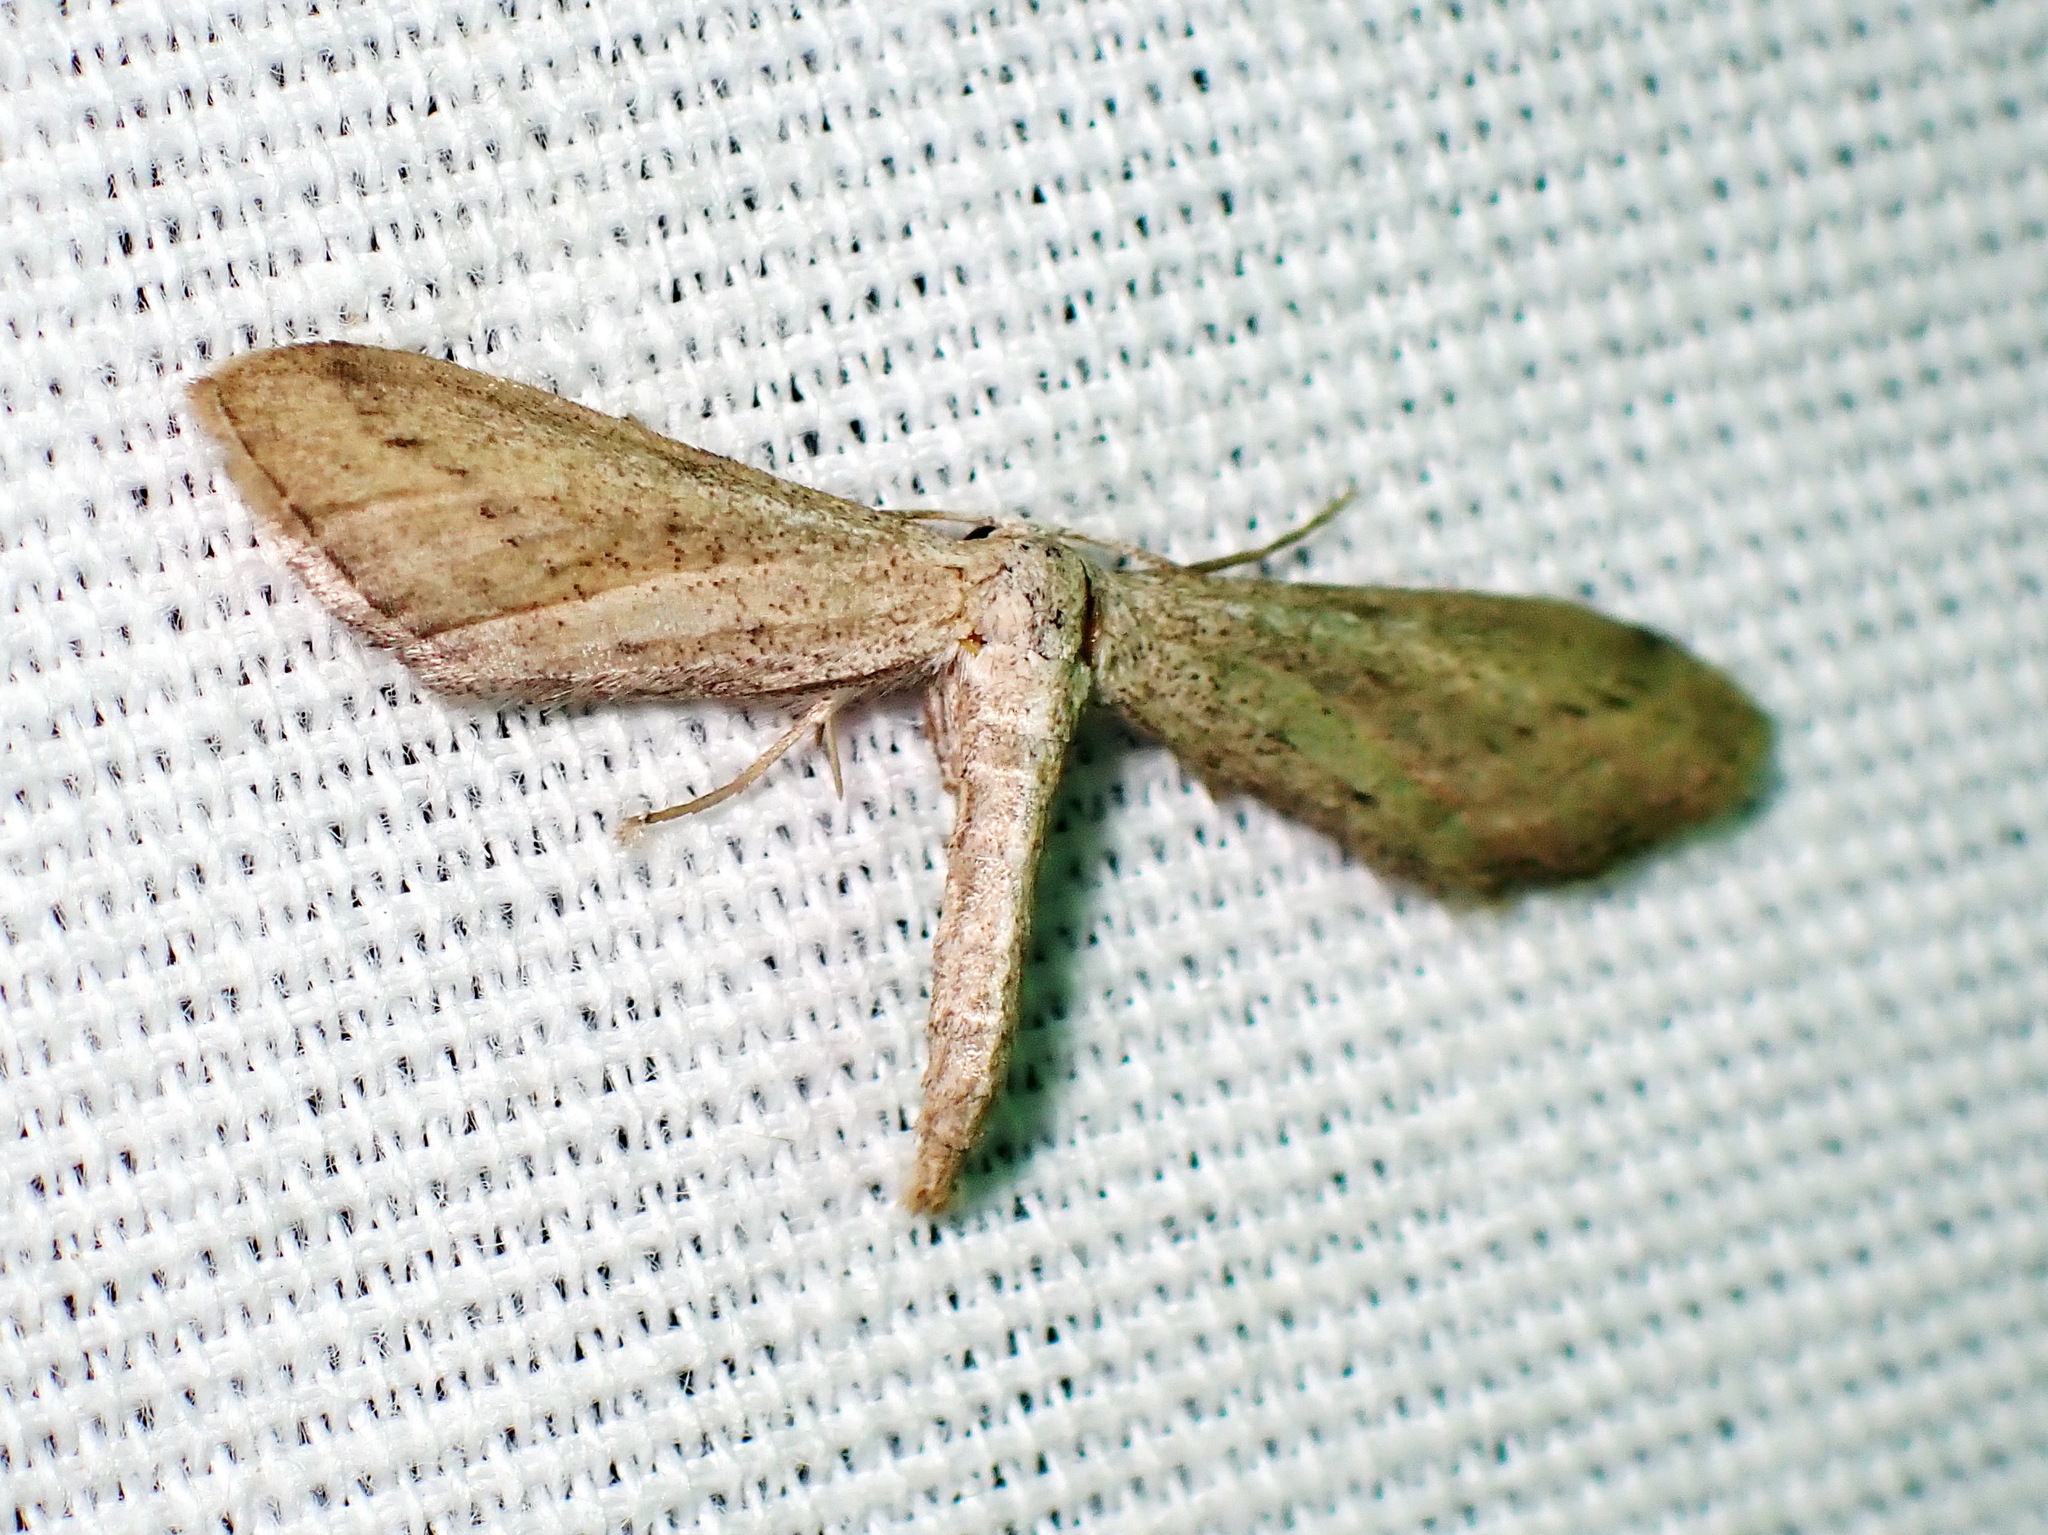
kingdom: Animalia
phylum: Arthropoda
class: Insecta
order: Lepidoptera
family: Geometridae
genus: Euacidalia
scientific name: Euacidalia brownsvillea
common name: Cankerworm
